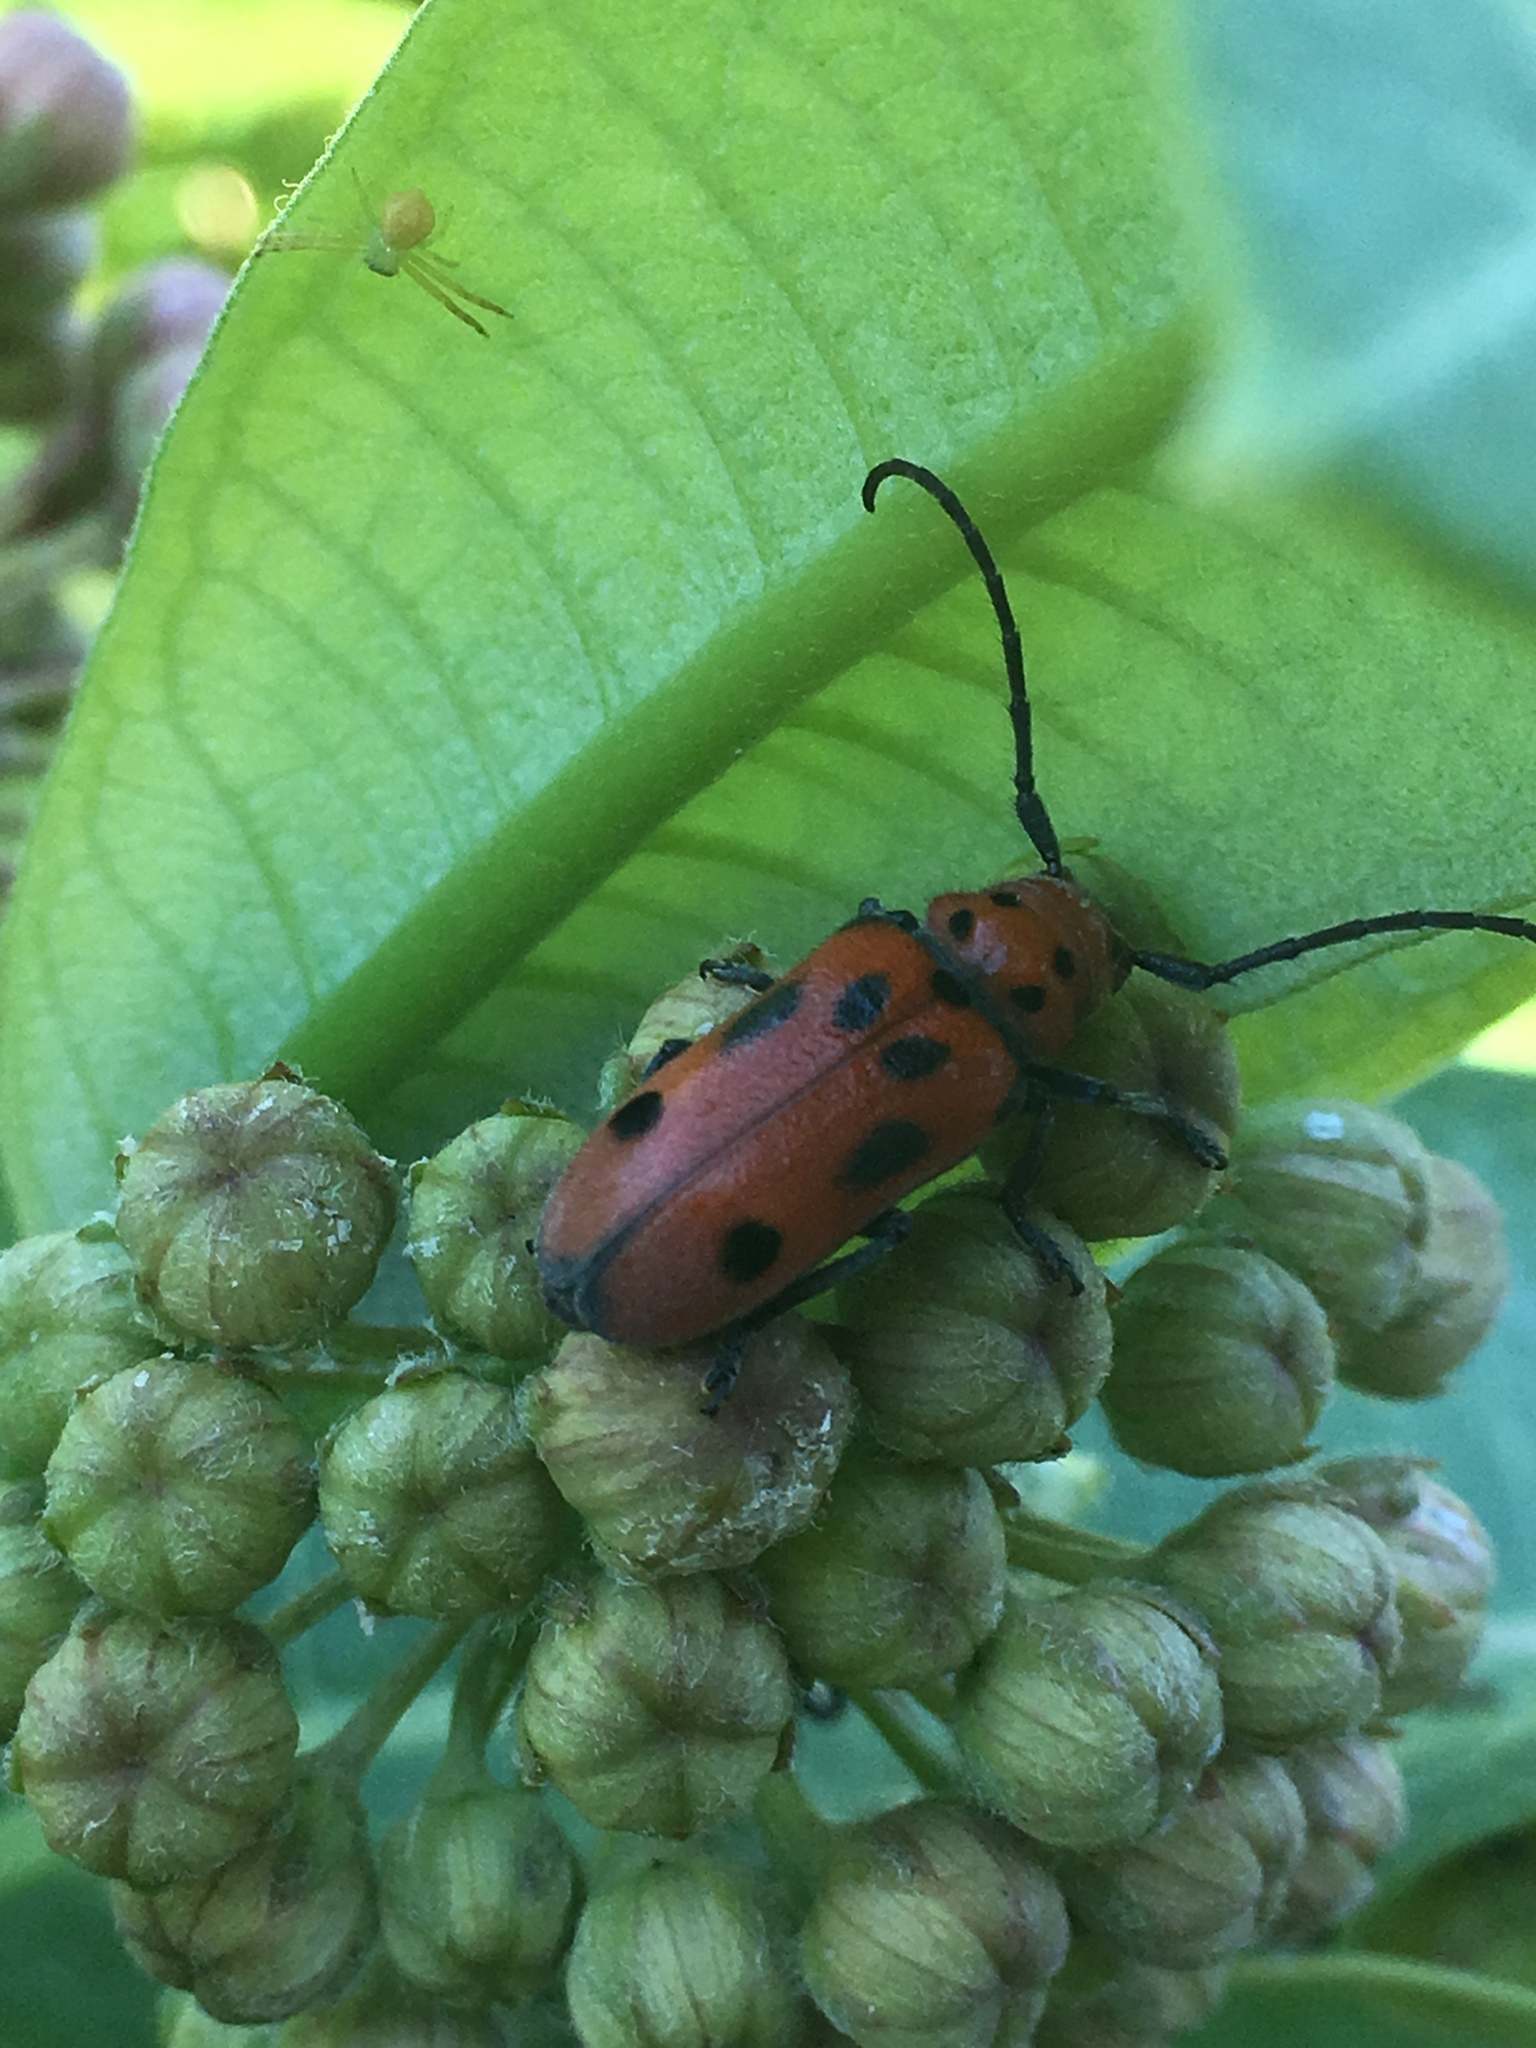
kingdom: Animalia
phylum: Arthropoda
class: Insecta
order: Coleoptera
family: Cerambycidae
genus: Tetraopes
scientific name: Tetraopes tetrophthalmus
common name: Red milkweed beetle
